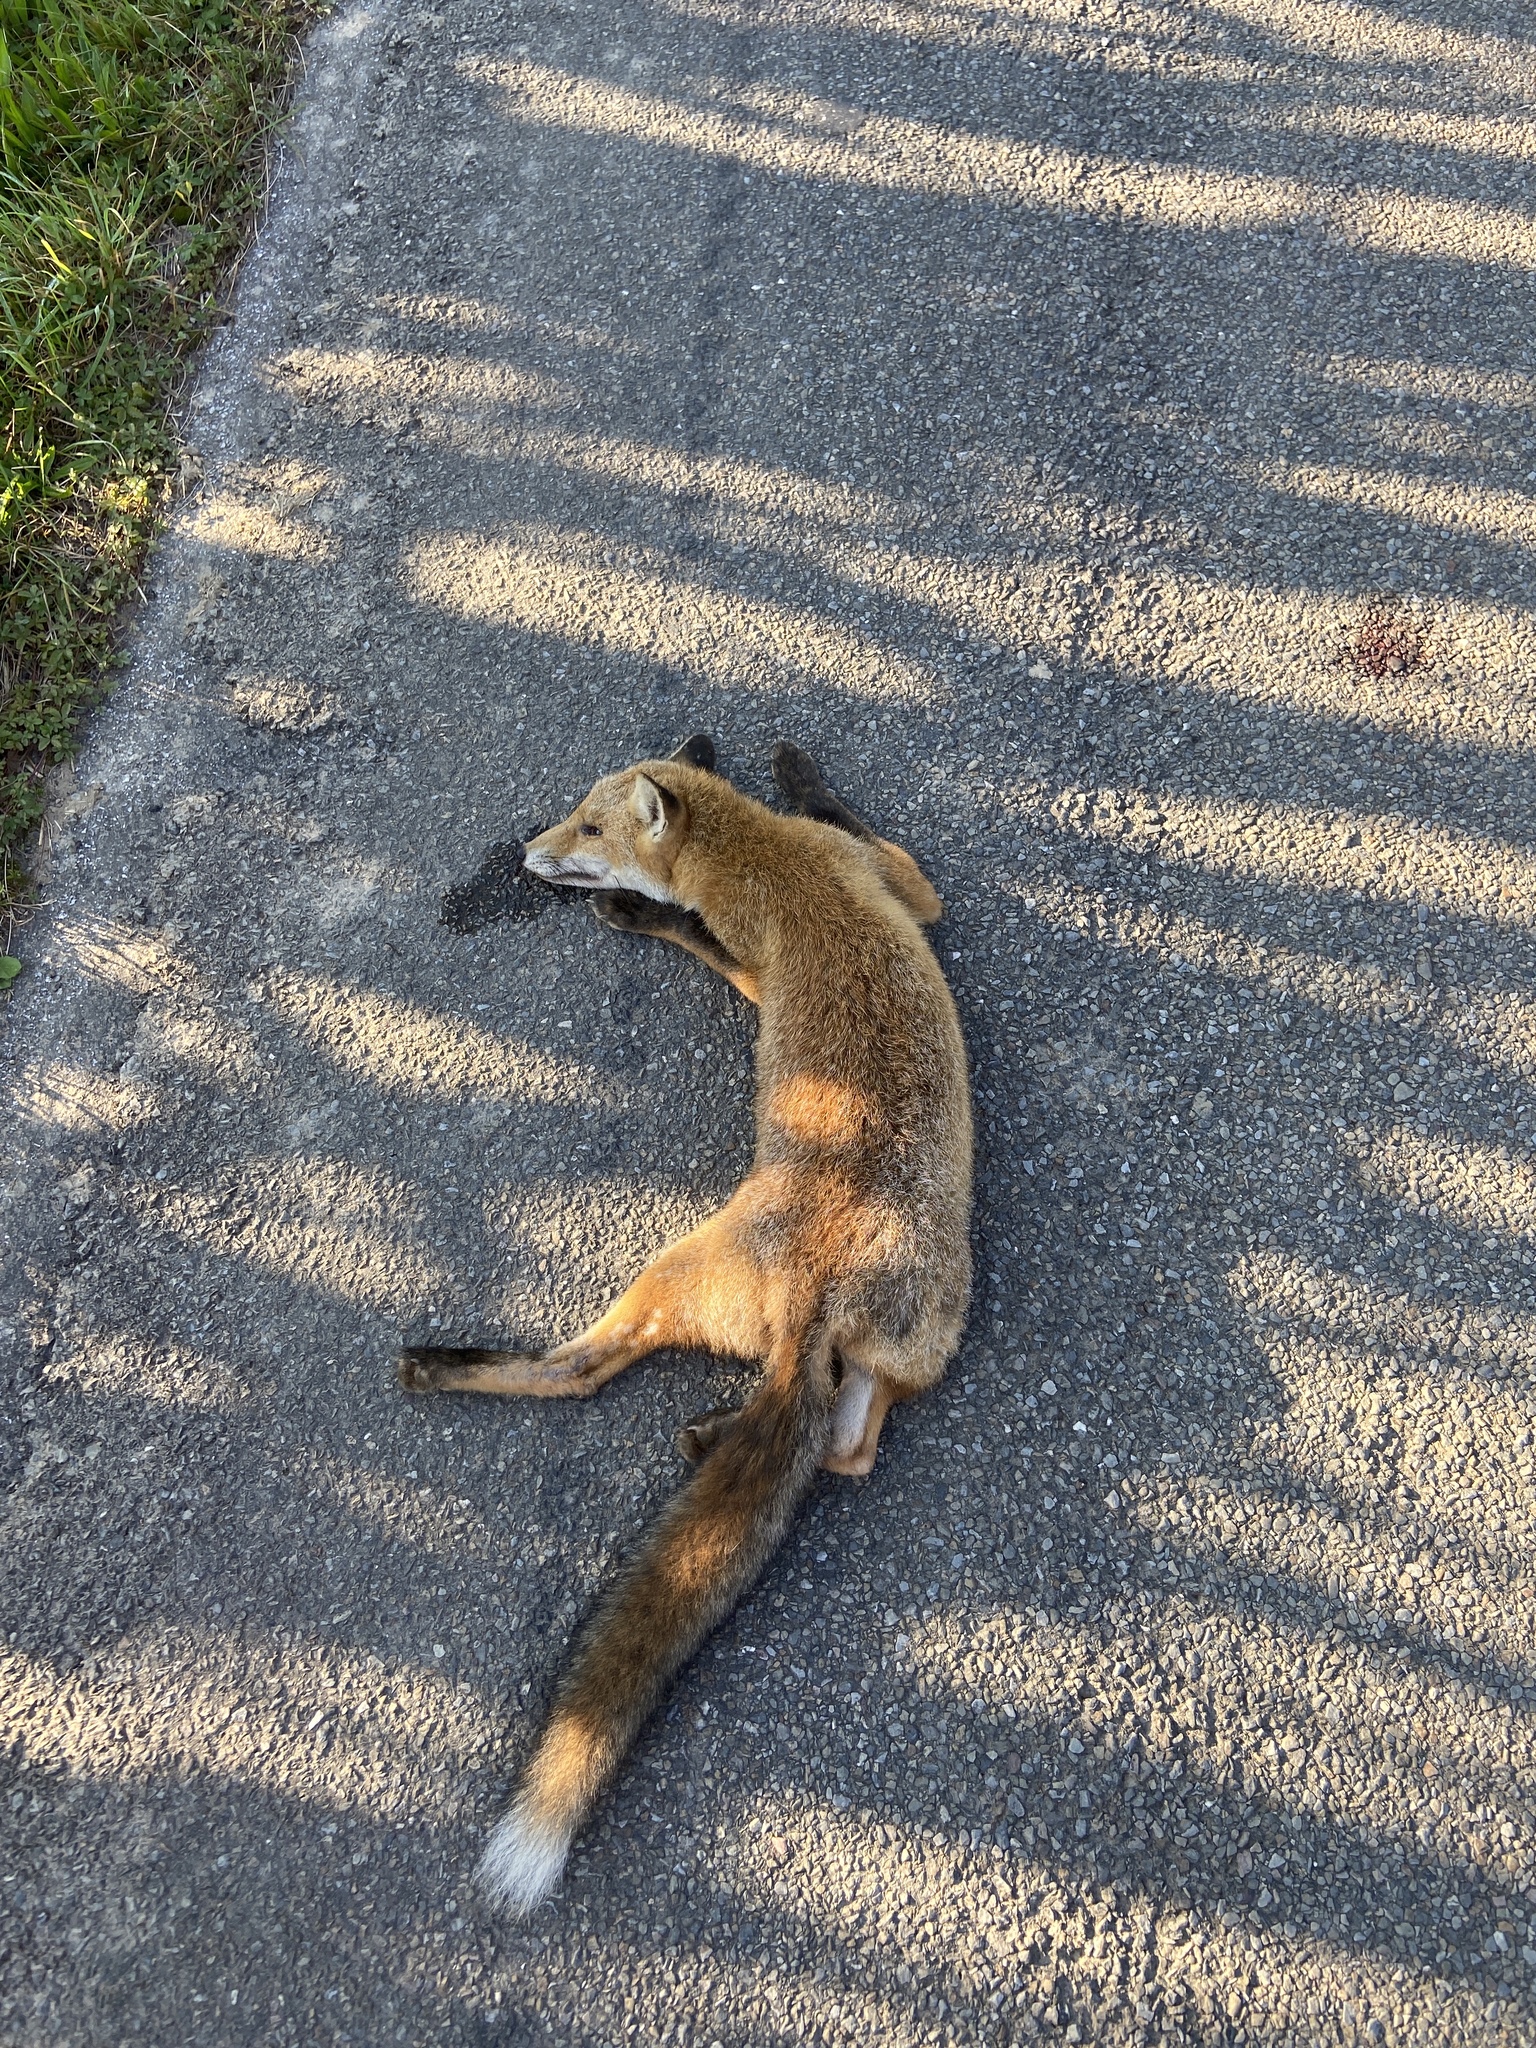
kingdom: Animalia
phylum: Chordata
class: Mammalia
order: Carnivora
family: Canidae
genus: Vulpes
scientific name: Vulpes vulpes
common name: Red fox
